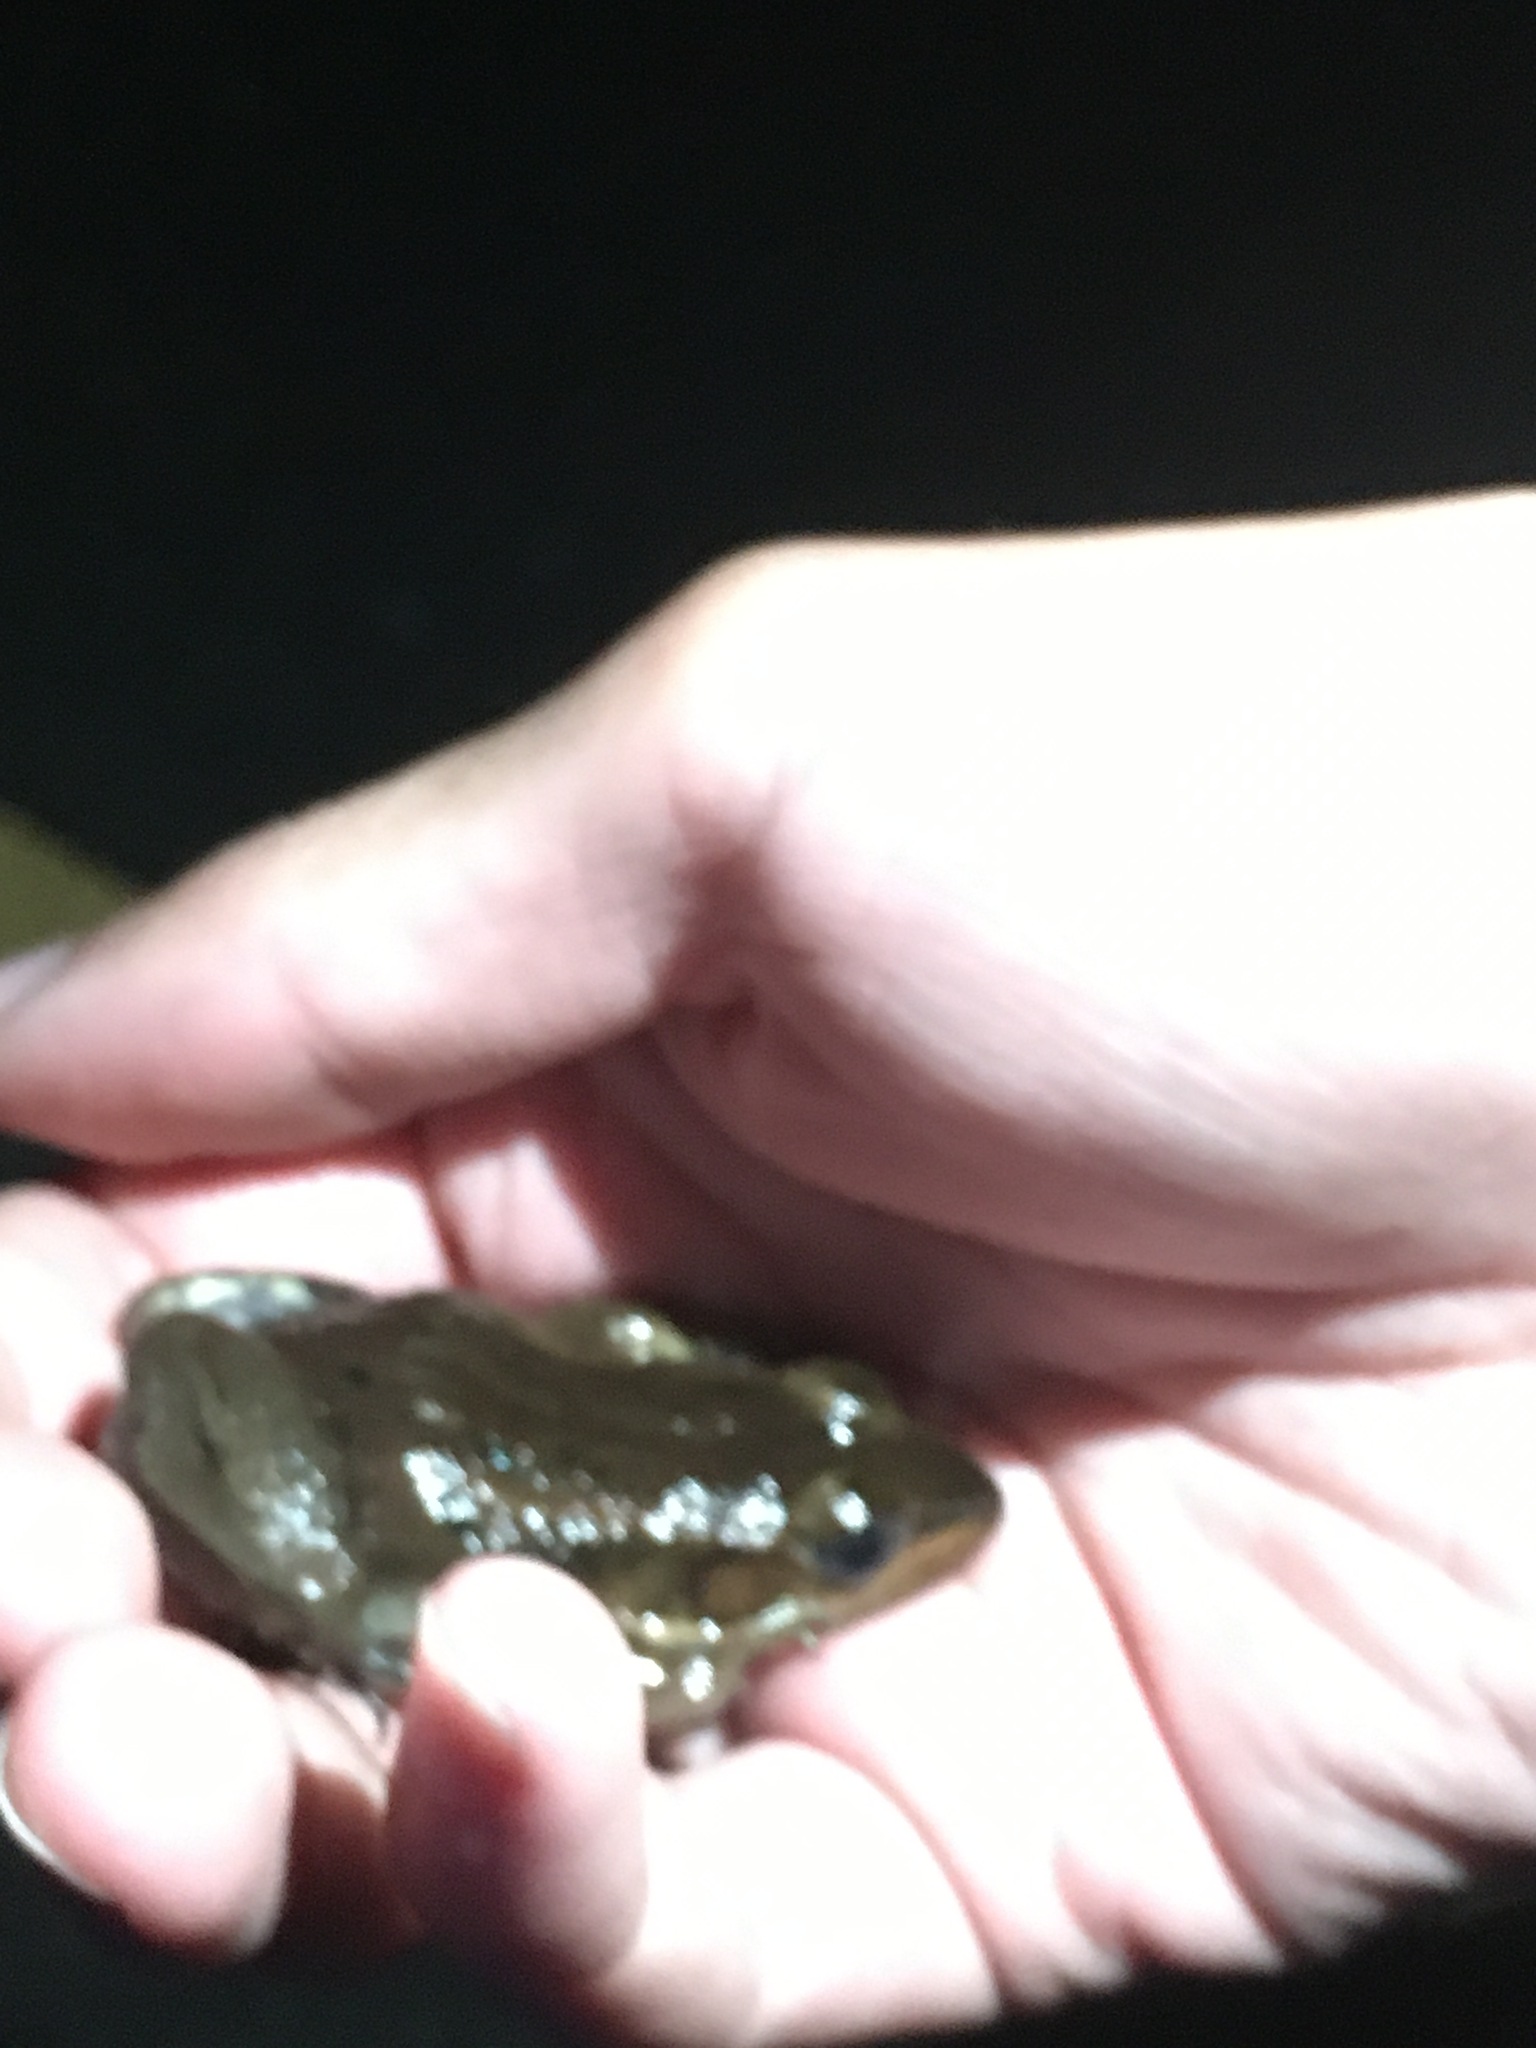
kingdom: Animalia
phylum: Chordata
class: Amphibia
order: Anura
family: Ranidae
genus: Lithobates
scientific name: Lithobates virgatipes
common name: Carpenter frog
